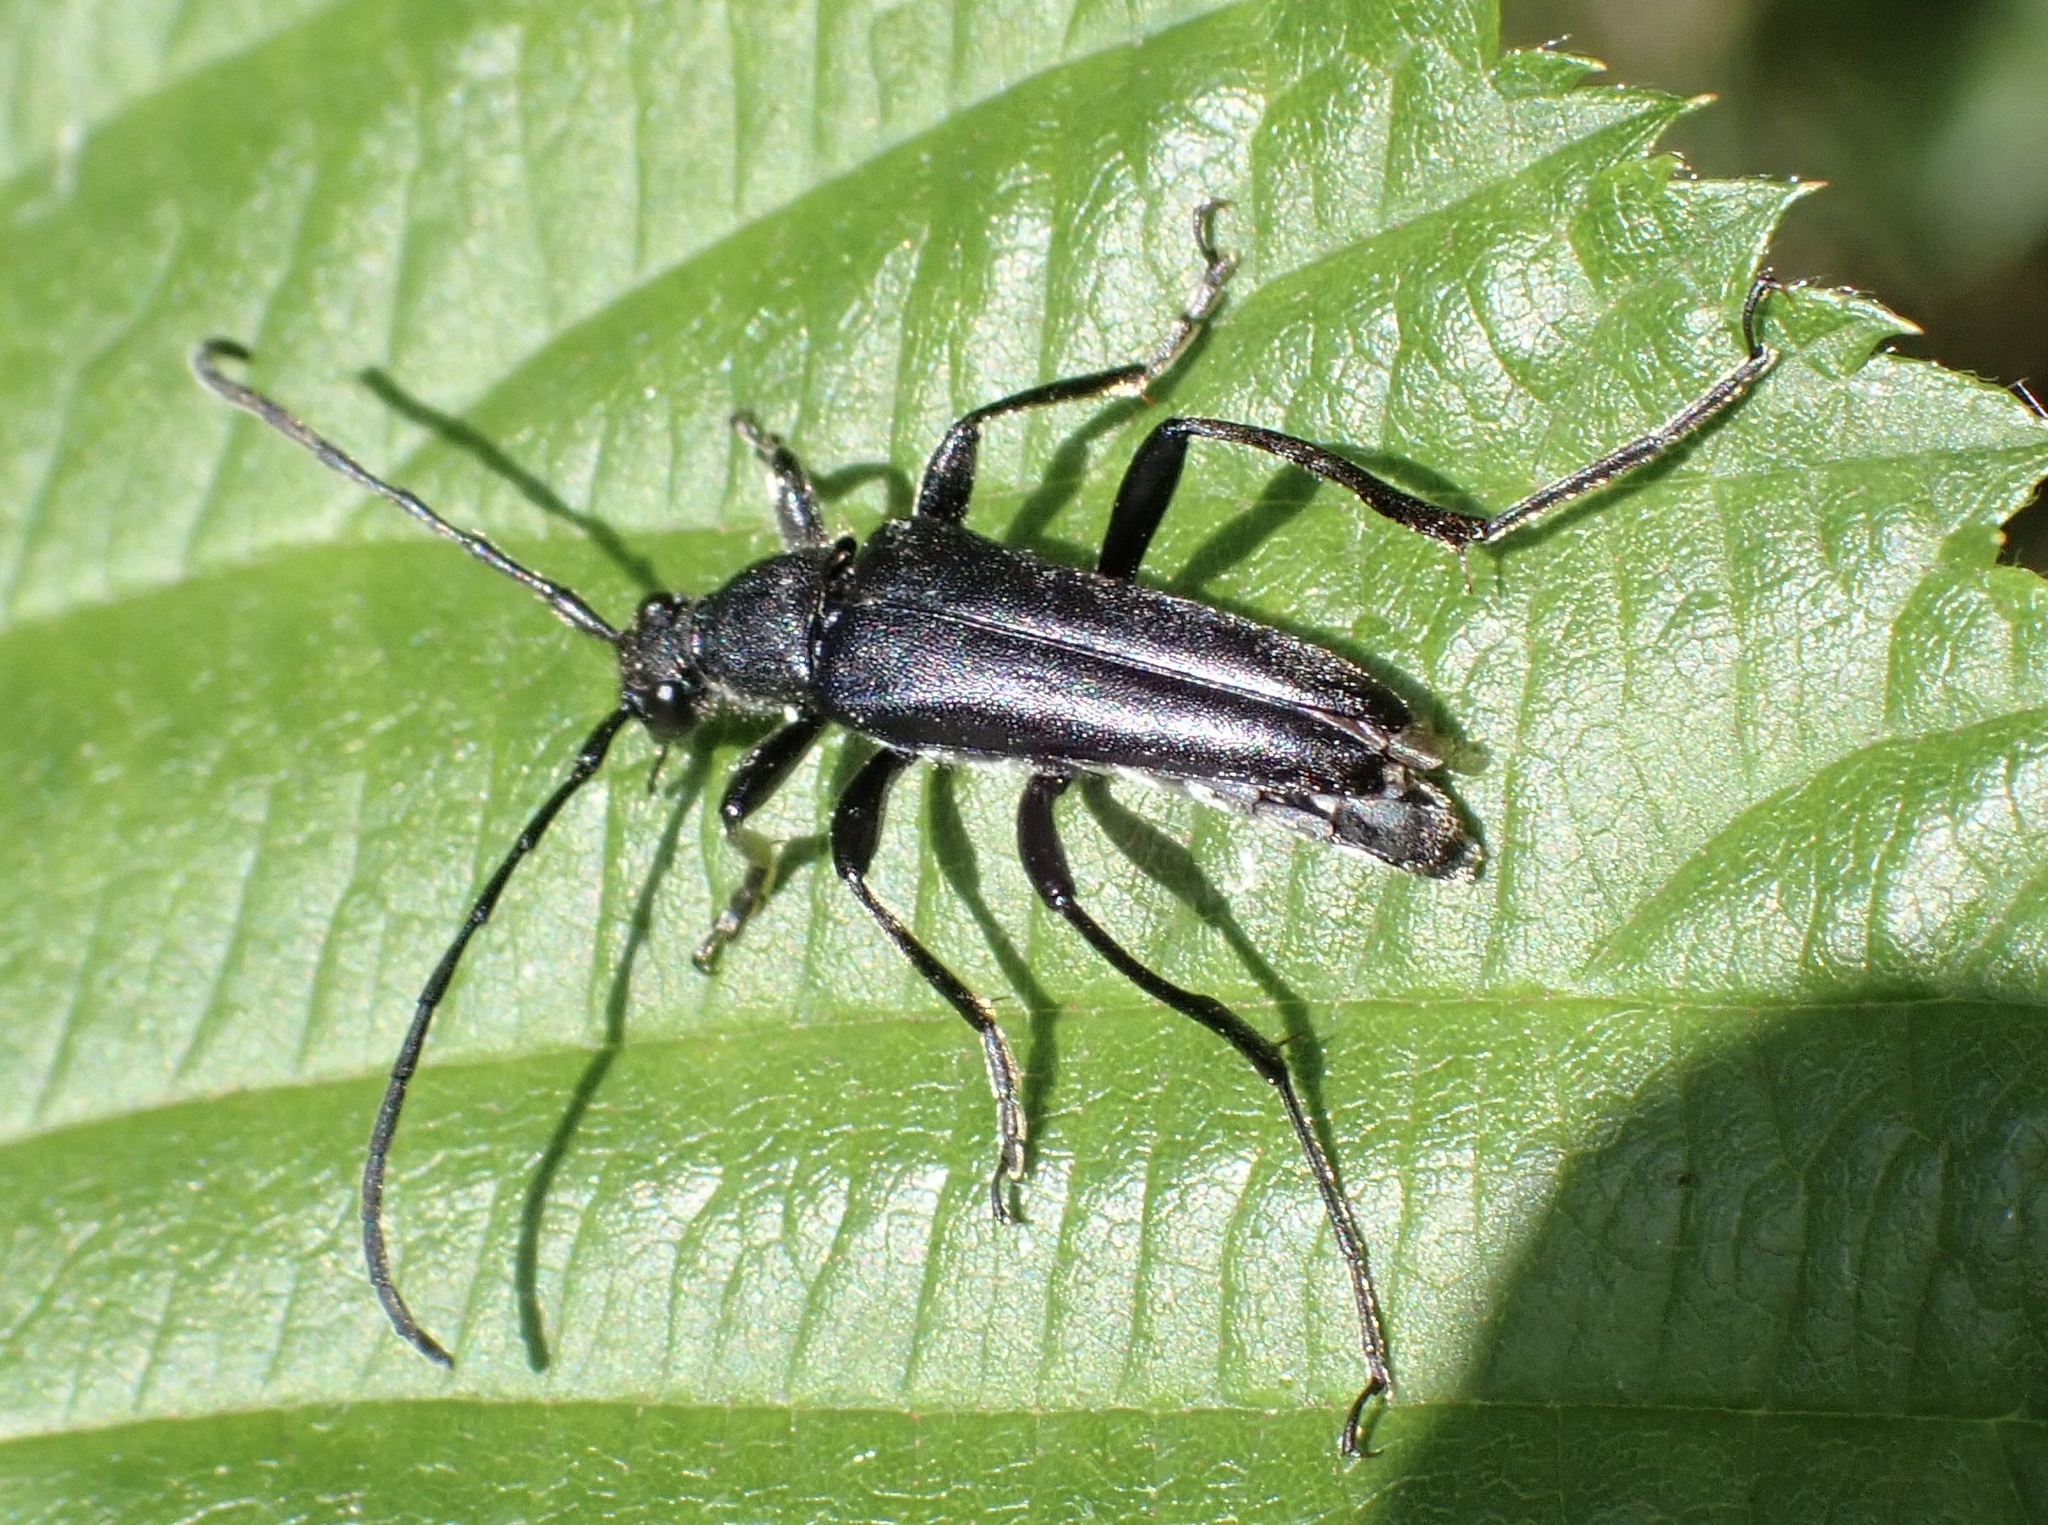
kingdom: Animalia
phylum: Arthropoda
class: Insecta
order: Coleoptera
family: Cerambycidae
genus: Leptura
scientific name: Leptura aethiops
